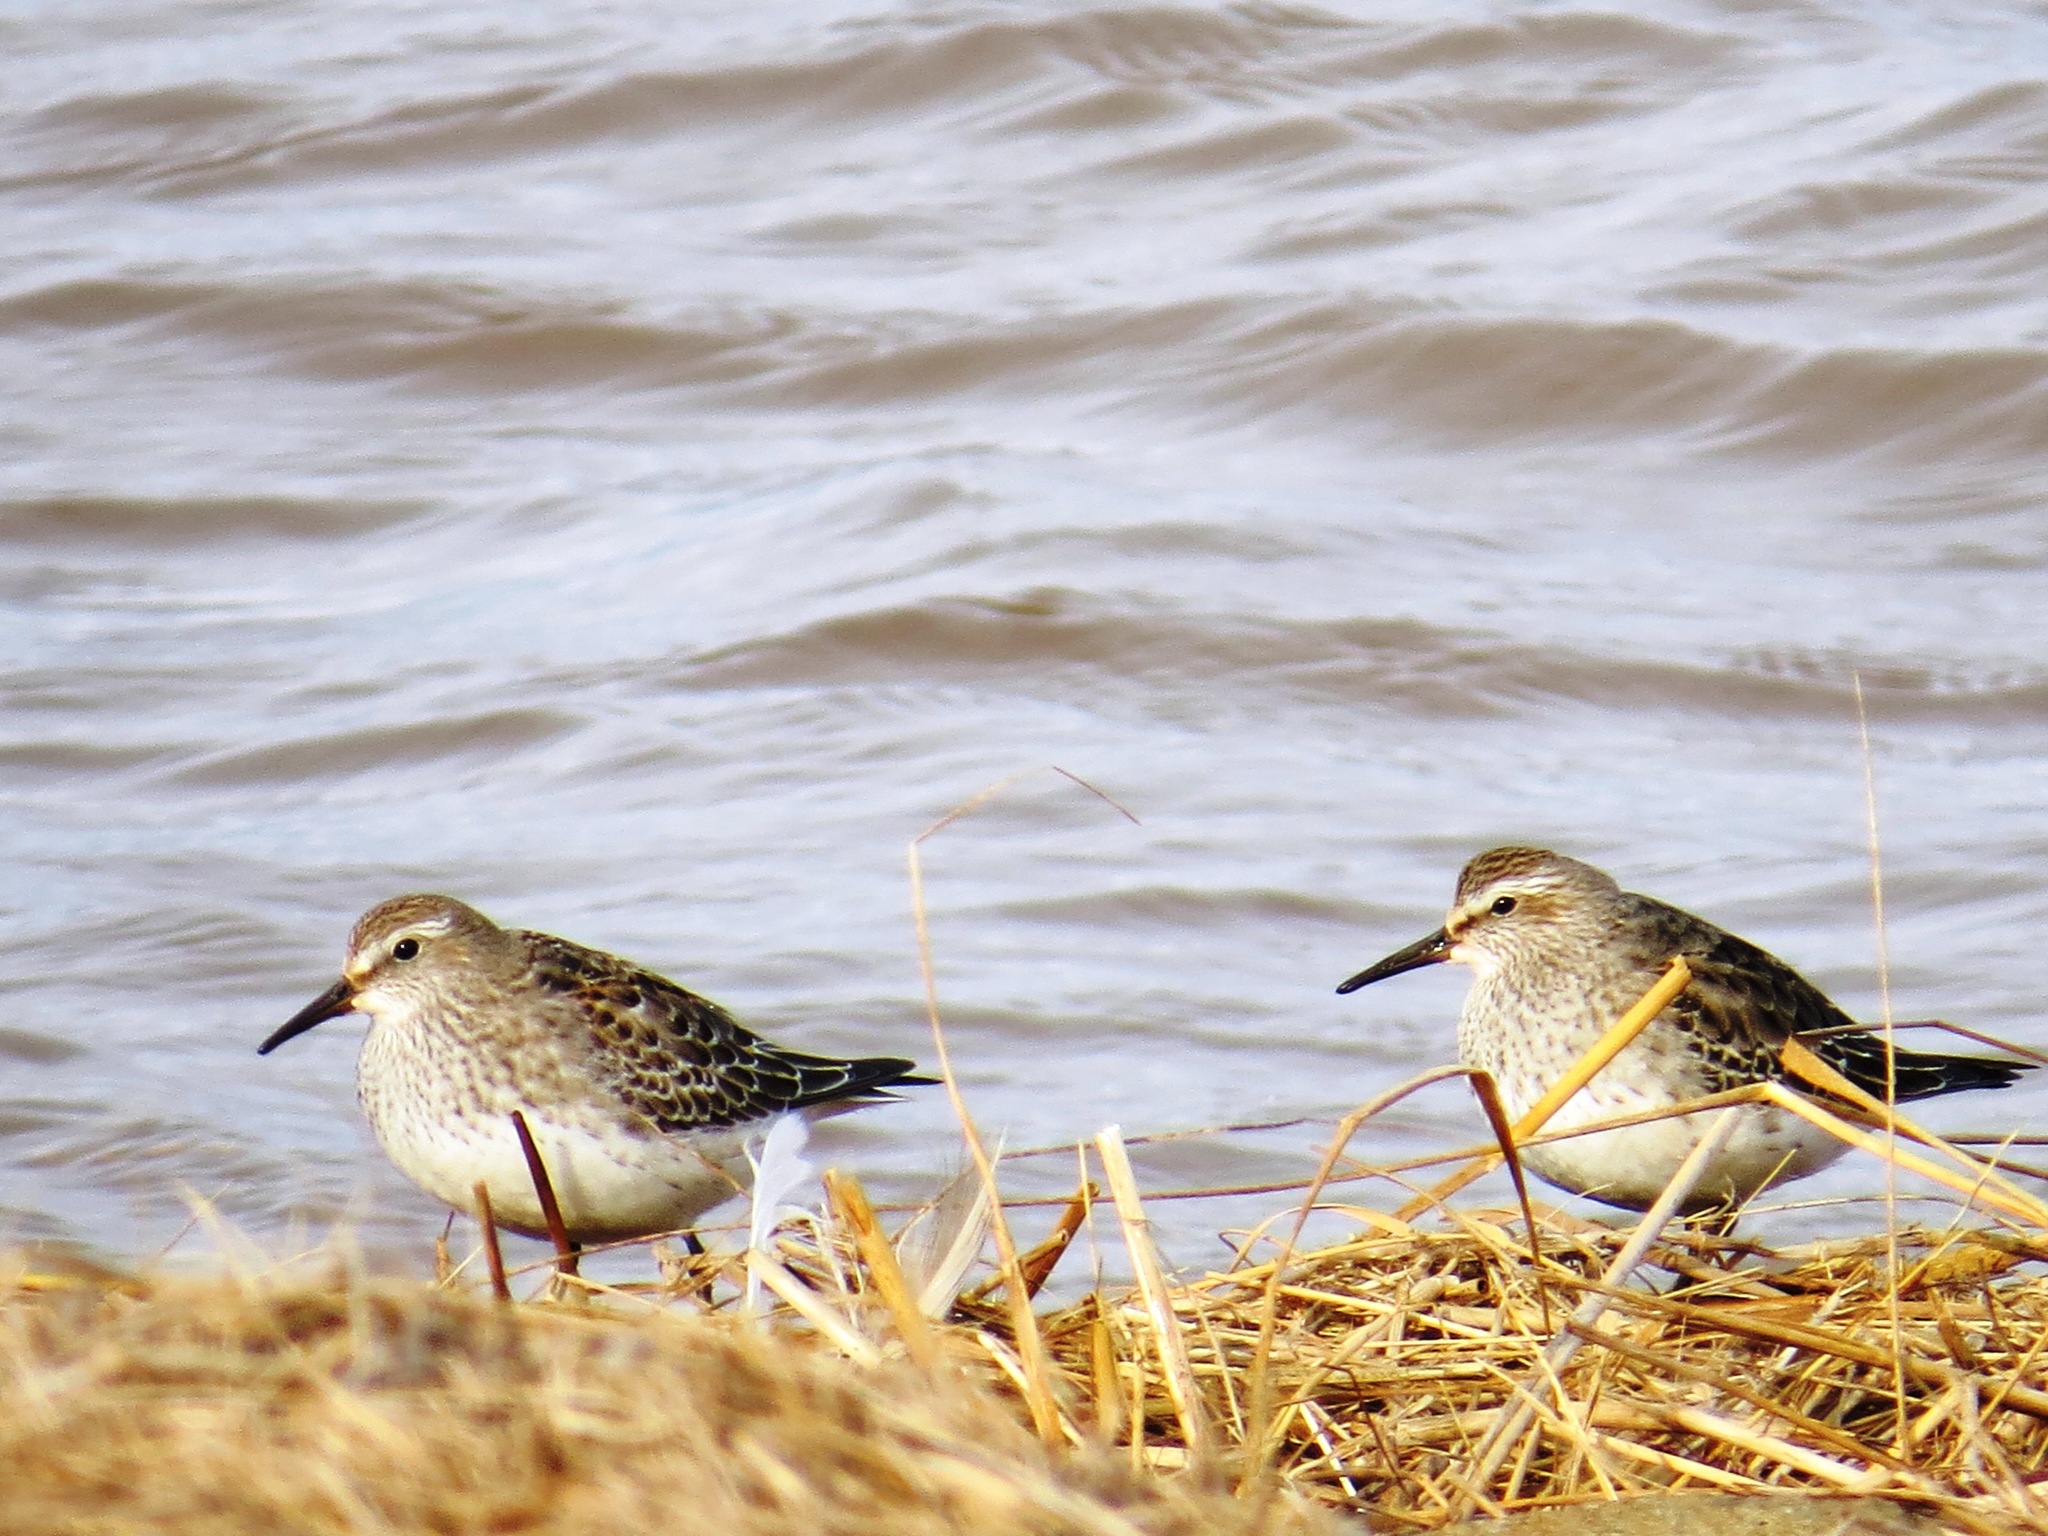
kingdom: Animalia
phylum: Chordata
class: Aves
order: Charadriiformes
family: Scolopacidae
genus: Calidris
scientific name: Calidris fuscicollis
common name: White-rumped sandpiper
